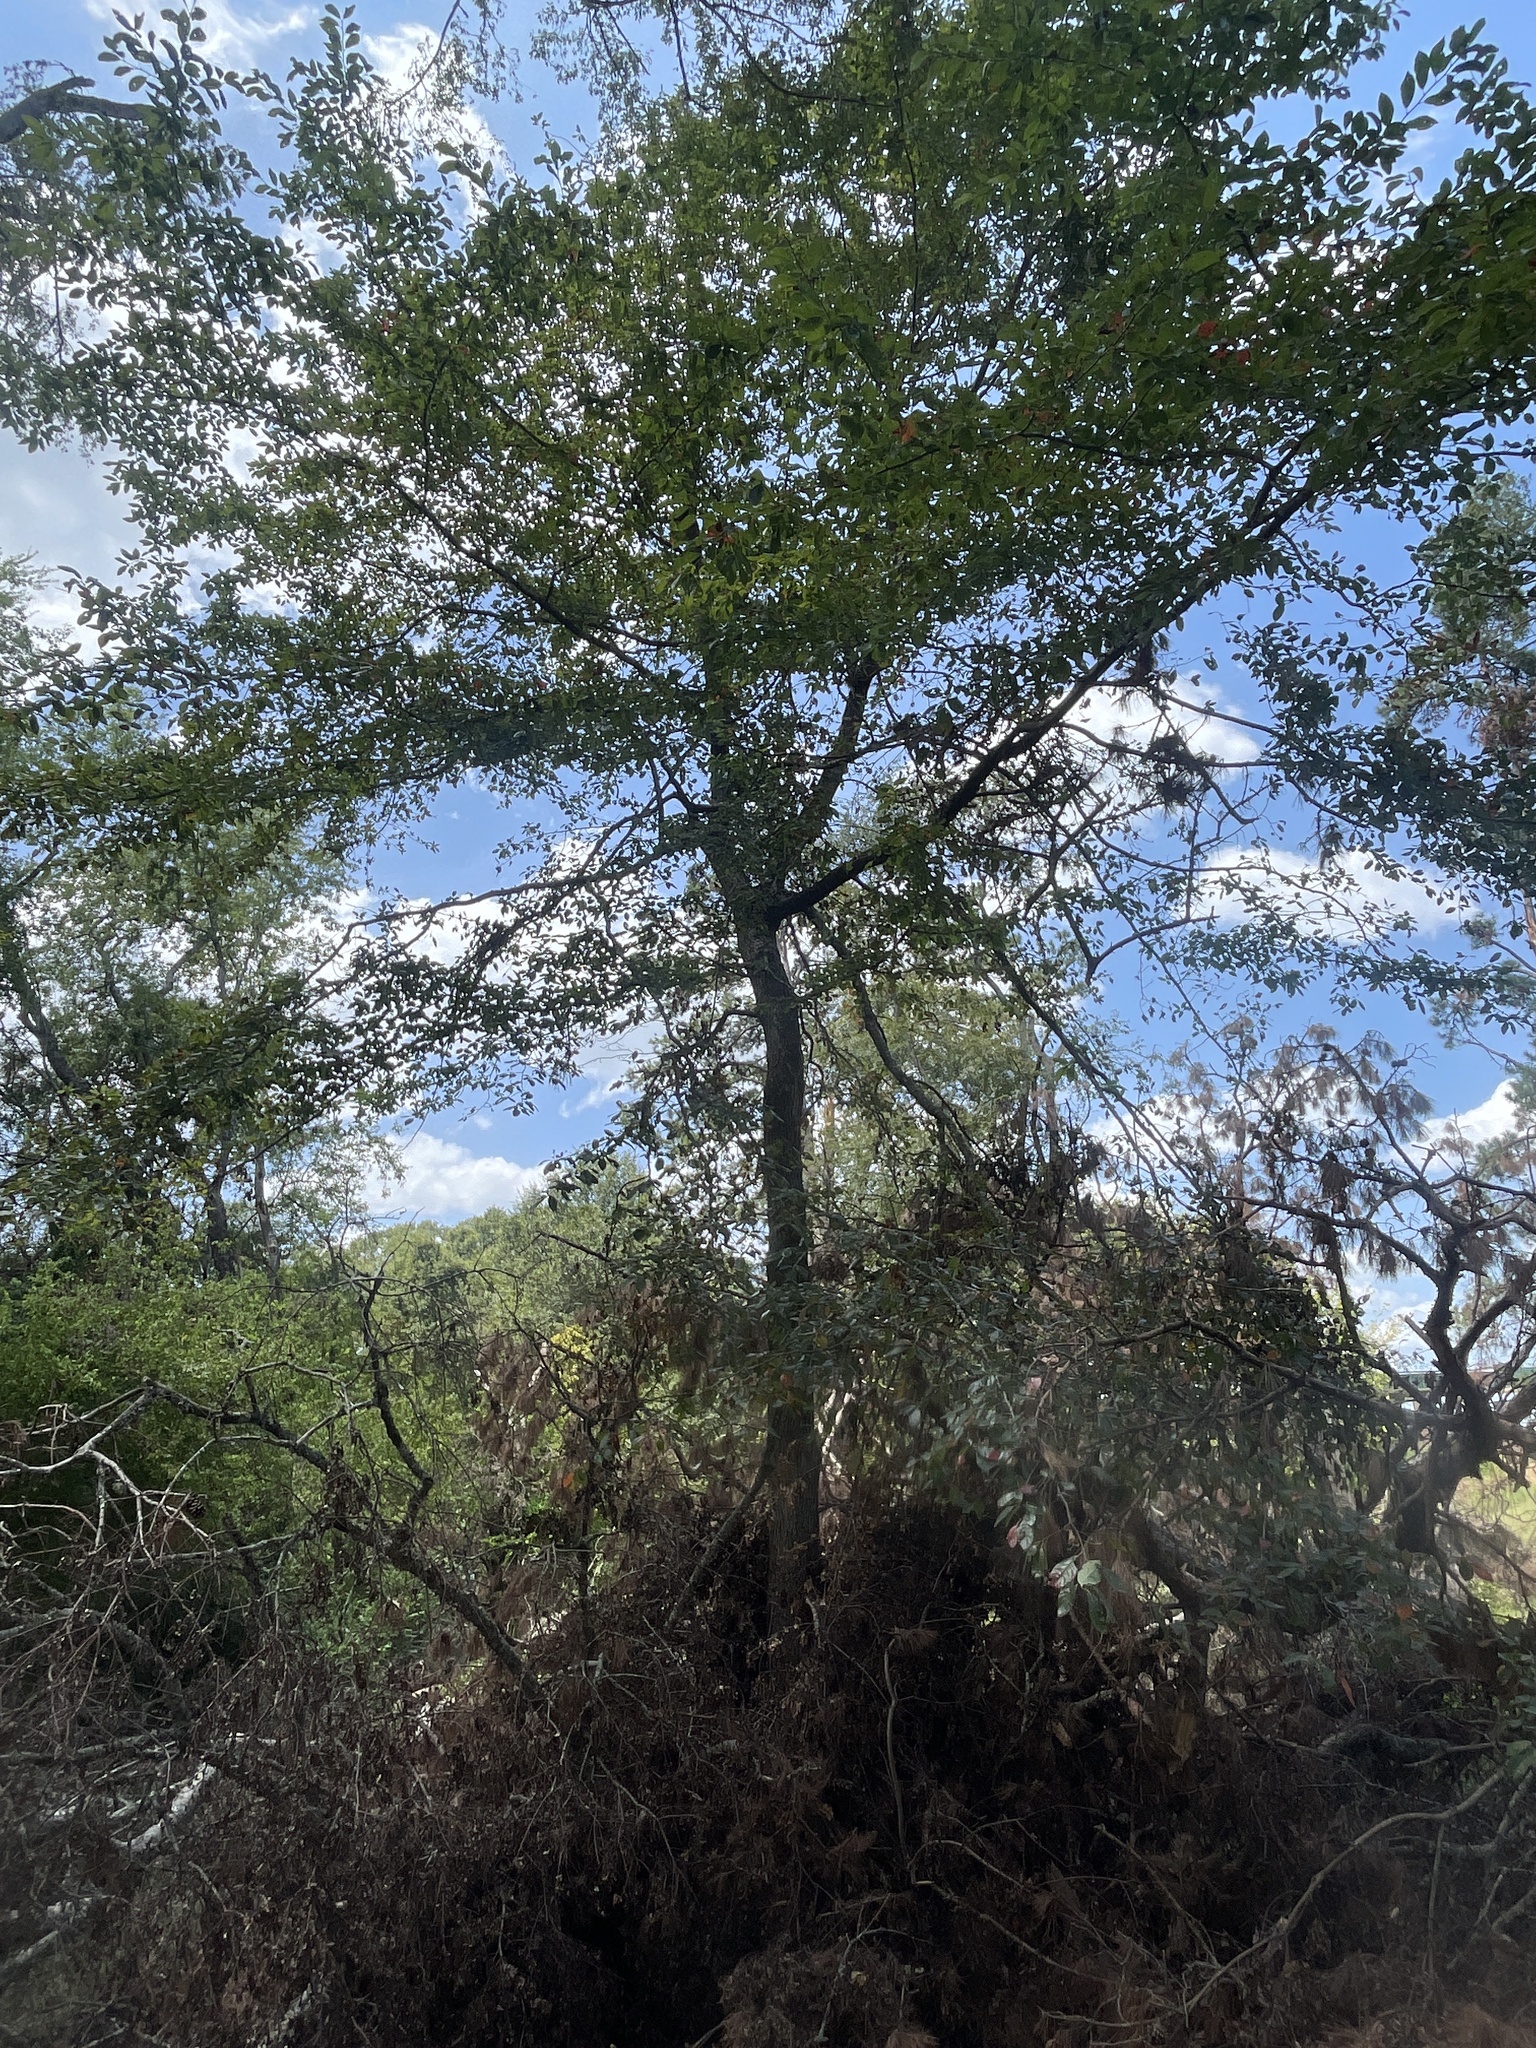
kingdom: Plantae
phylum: Tracheophyta
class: Magnoliopsida
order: Cornales
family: Nyssaceae
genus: Nyssa
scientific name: Nyssa sylvatica
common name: Black tupelo
